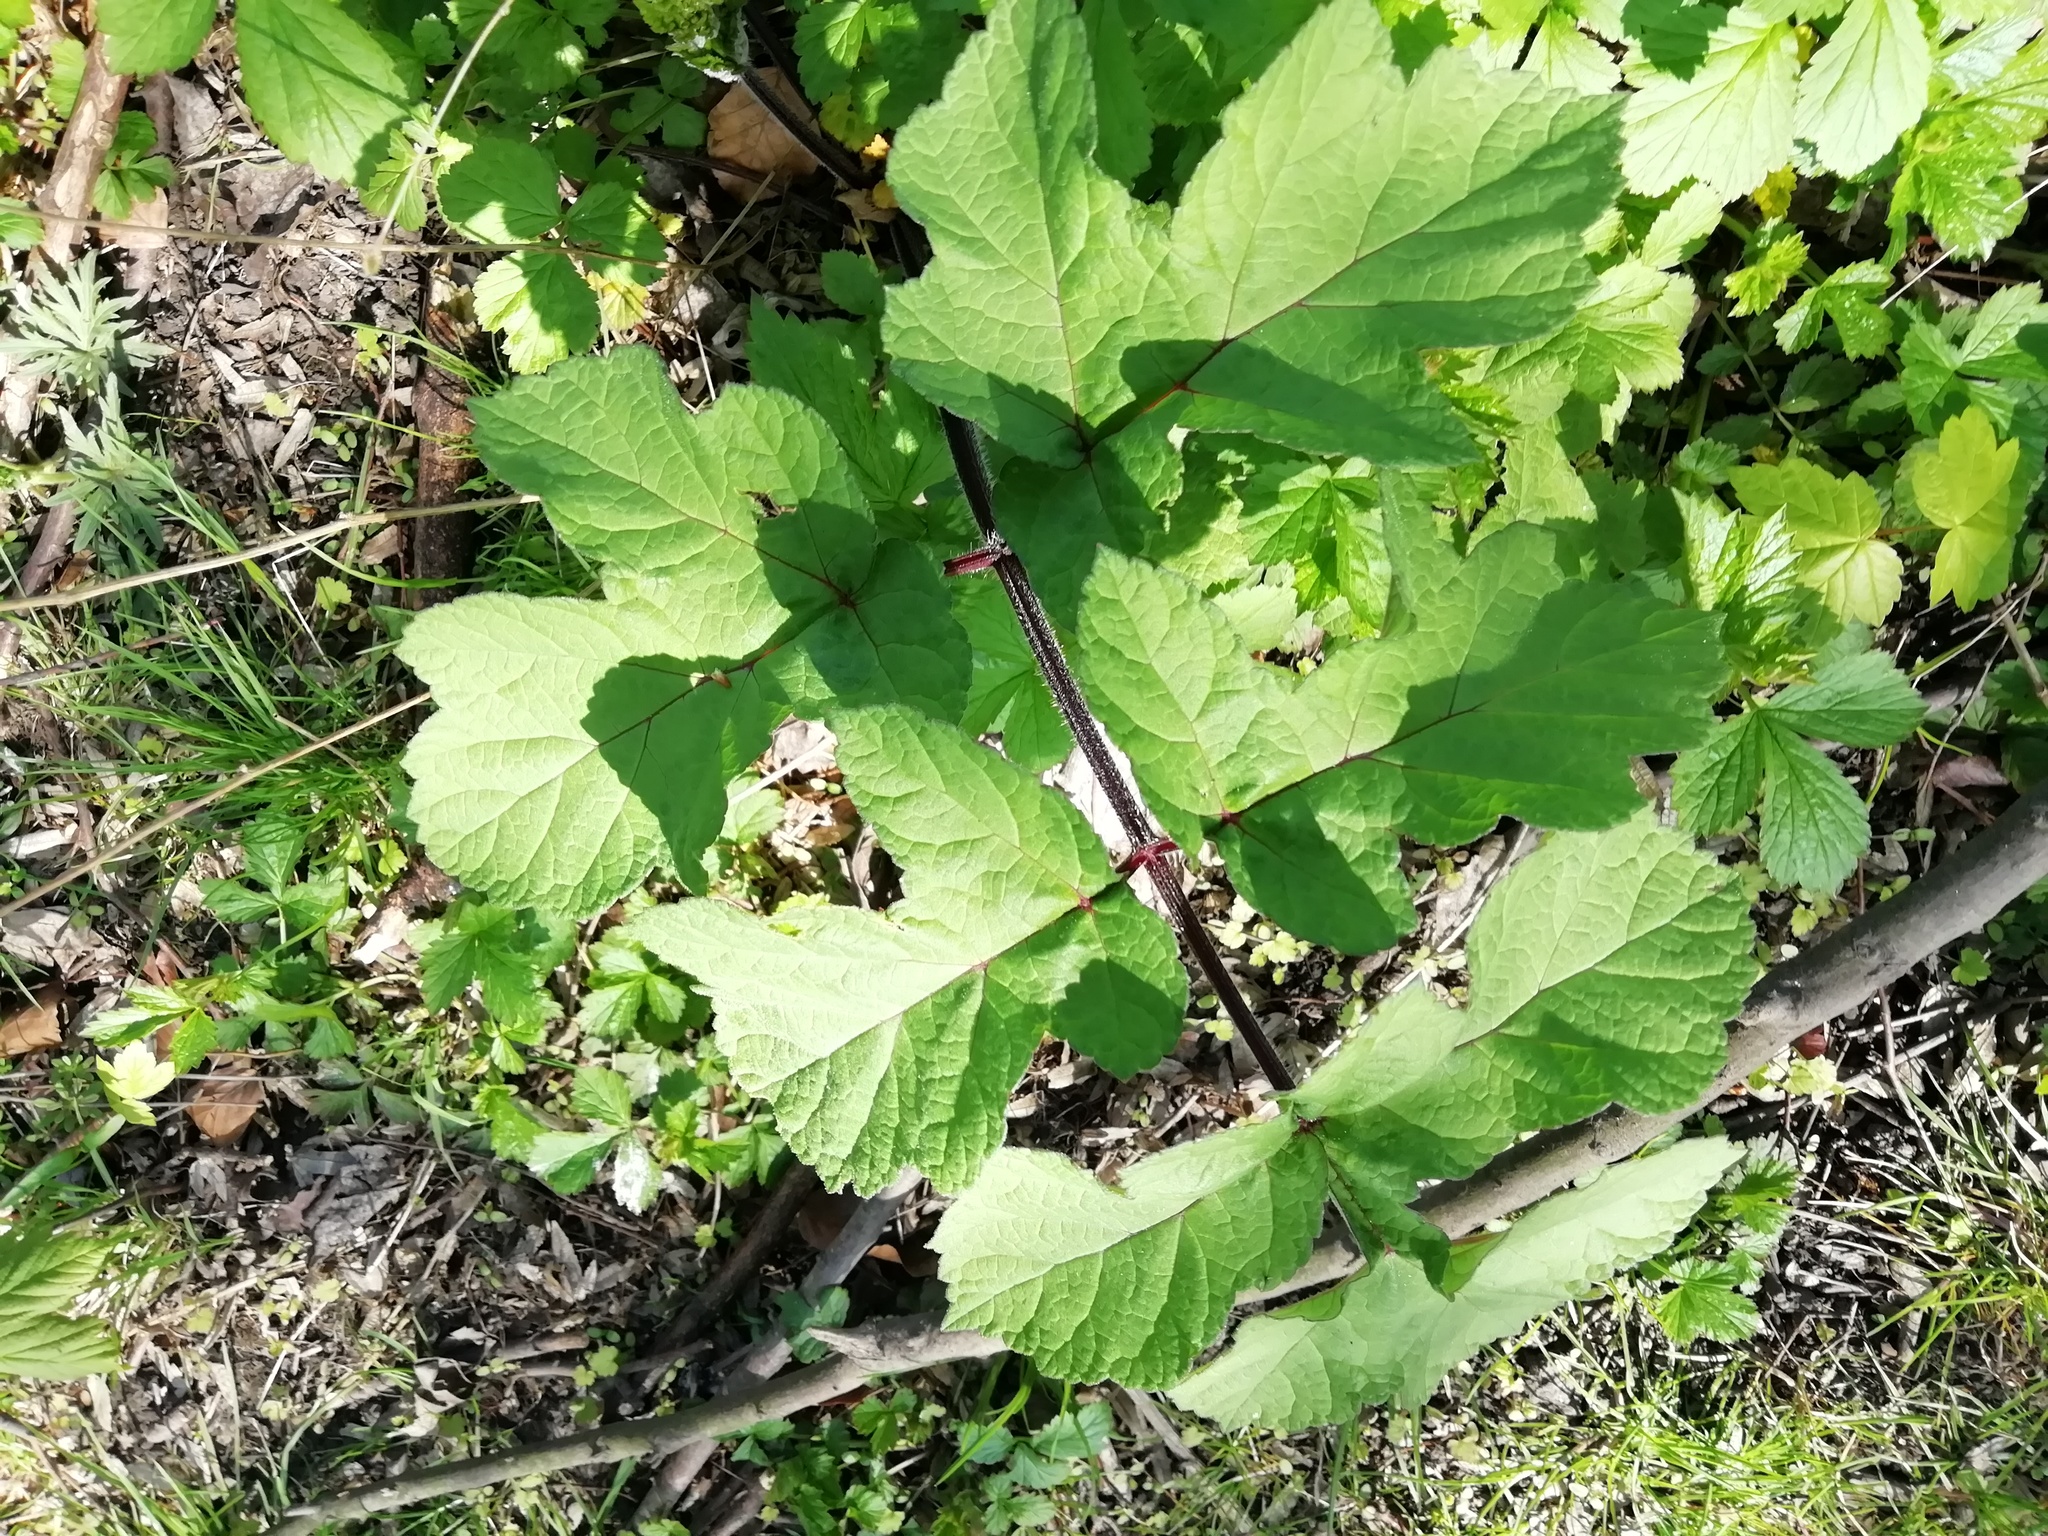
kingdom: Plantae
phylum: Tracheophyta
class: Magnoliopsida
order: Apiales
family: Apiaceae
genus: Heracleum
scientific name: Heracleum sphondylium
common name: Hogweed
